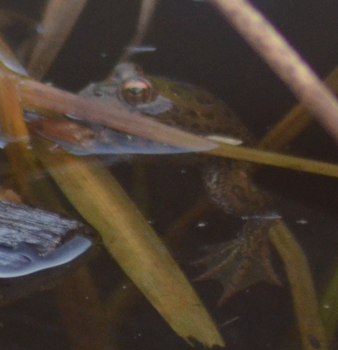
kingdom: Animalia
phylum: Chordata
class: Amphibia
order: Anura
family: Ranidae
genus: Pelophylax
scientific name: Pelophylax perezi
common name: Perez's frog
